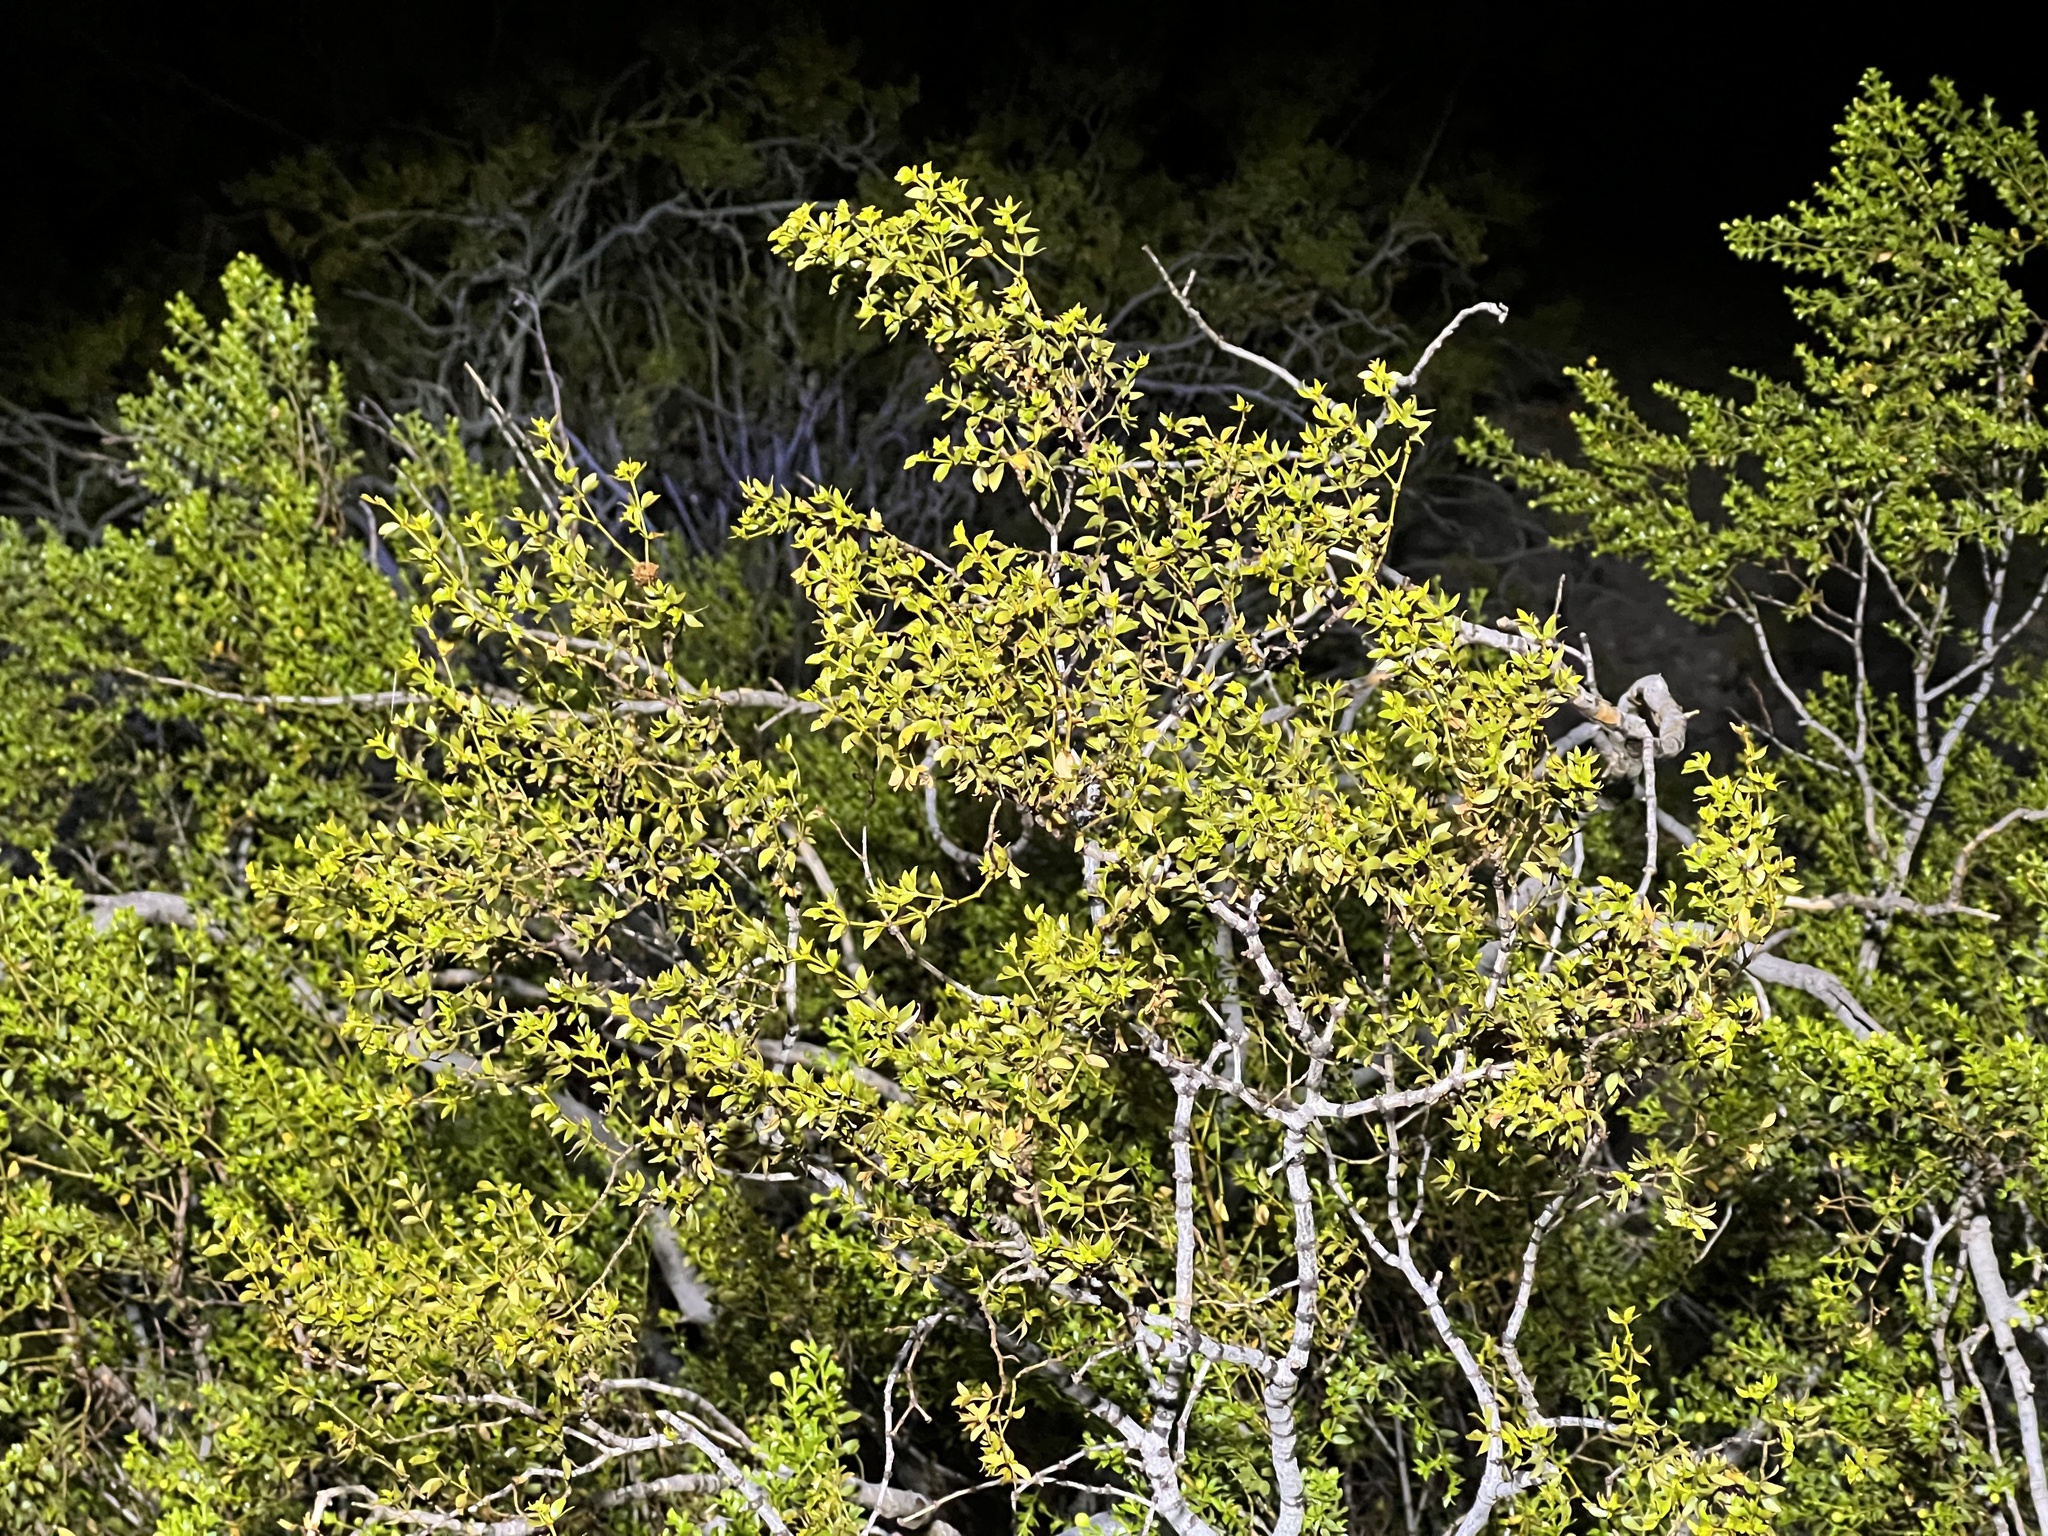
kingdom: Plantae
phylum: Tracheophyta
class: Magnoliopsida
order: Zygophyllales
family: Zygophyllaceae
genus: Larrea
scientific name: Larrea tridentata
